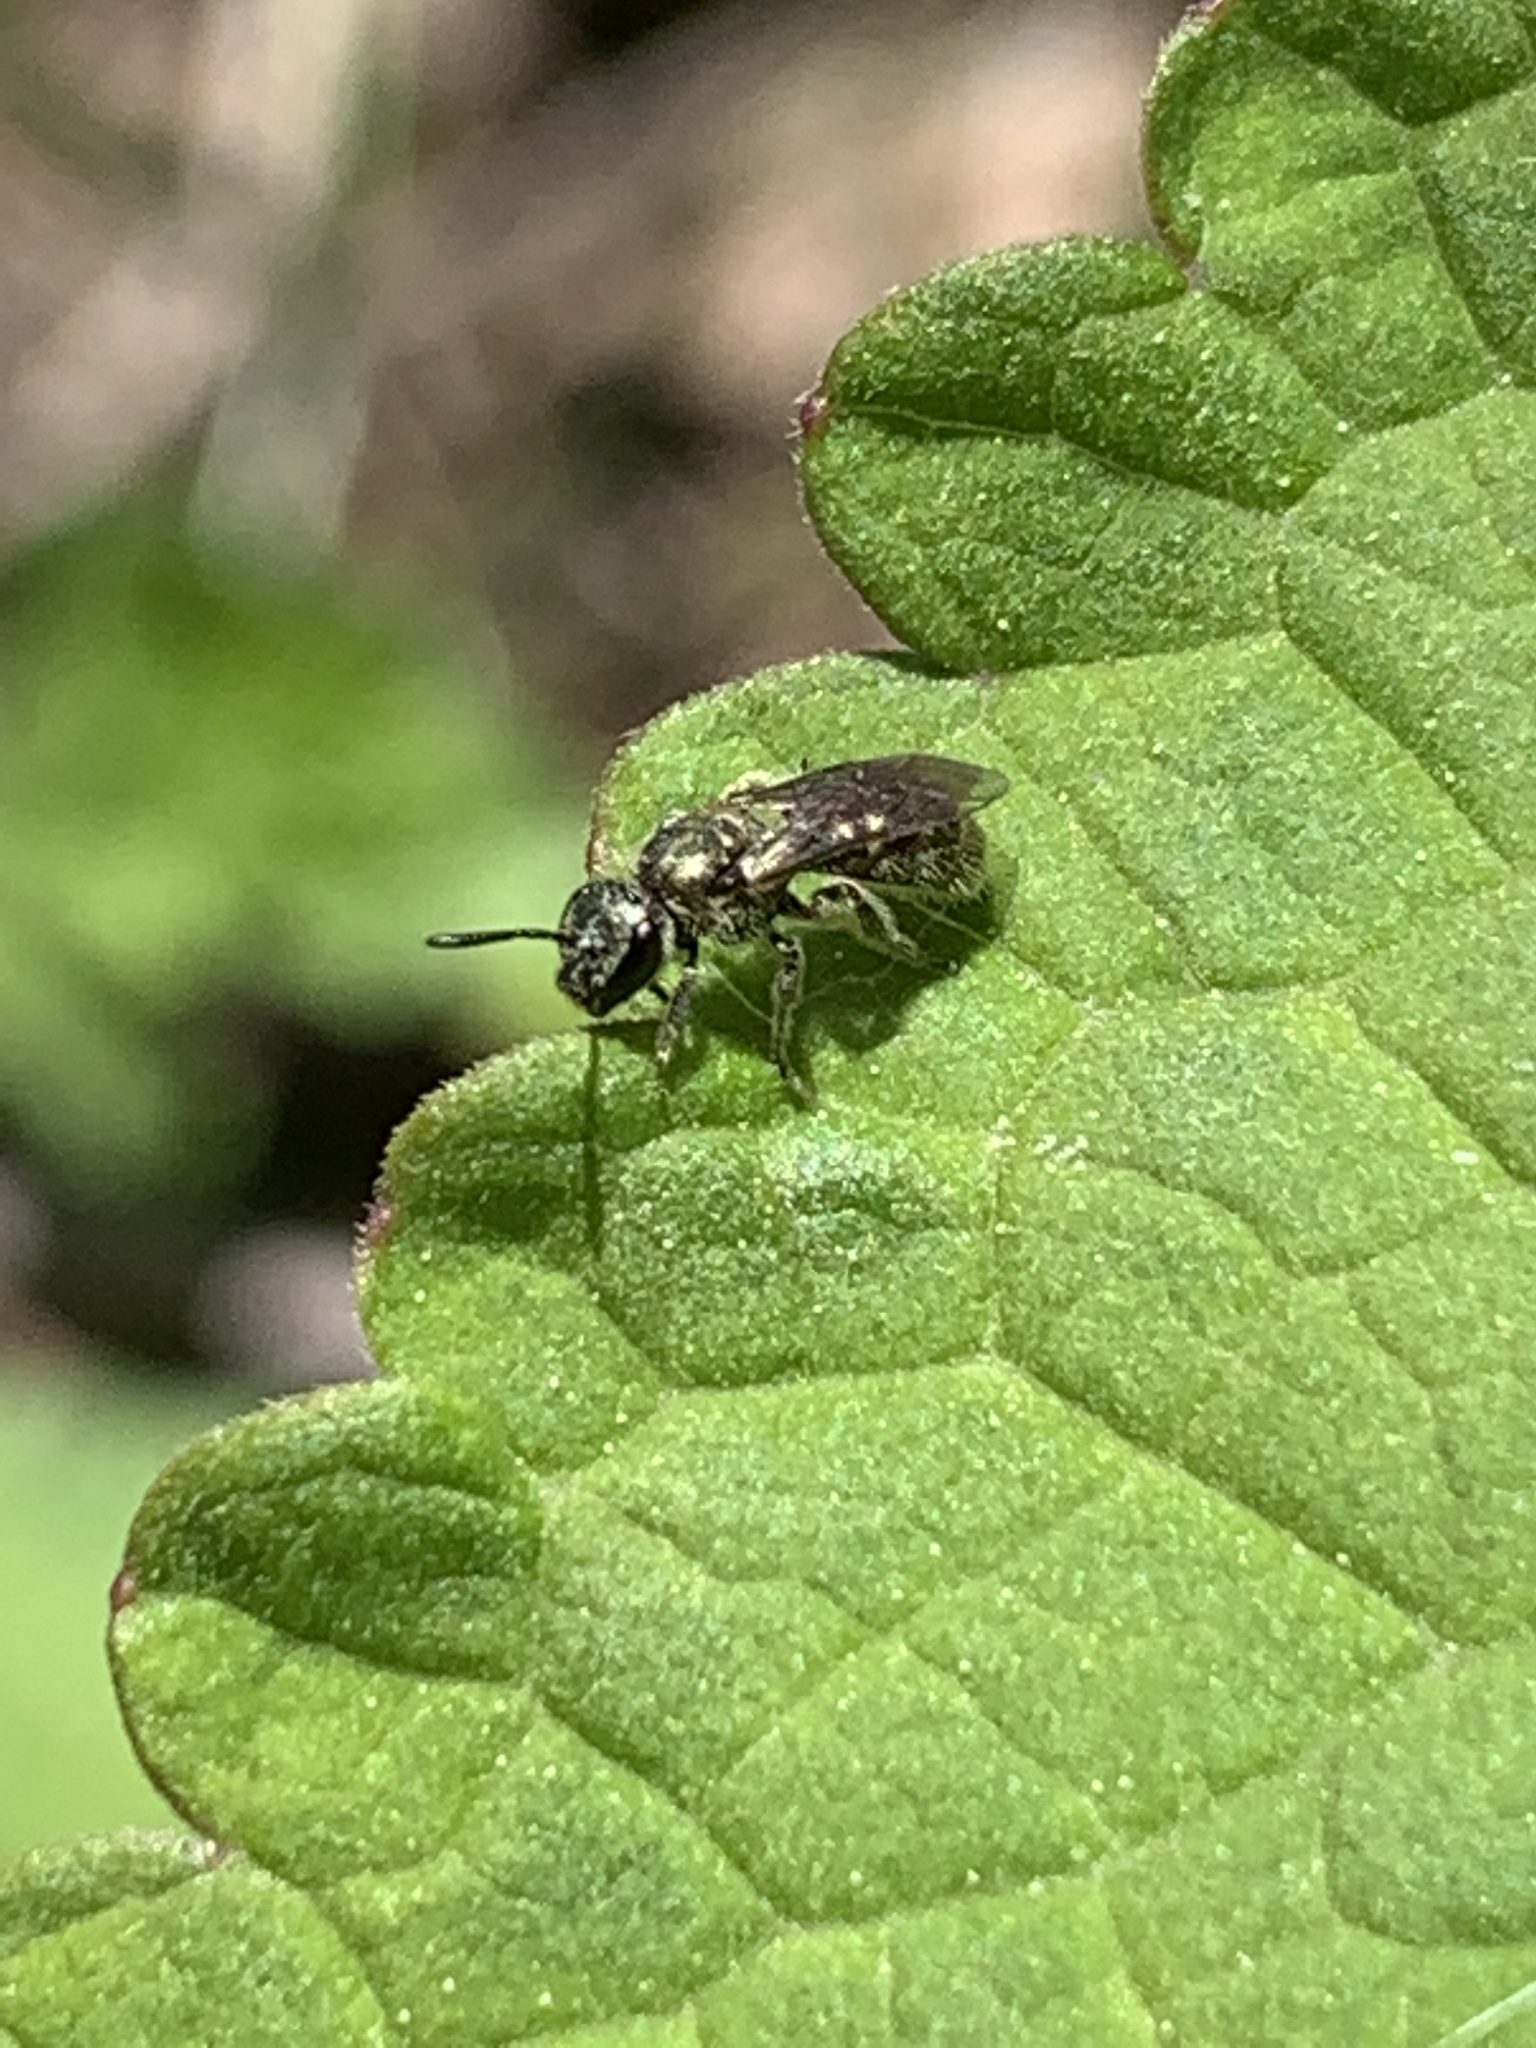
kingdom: Animalia
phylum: Arthropoda
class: Insecta
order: Hymenoptera
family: Halictidae
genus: Dialictus
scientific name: Dialictus
